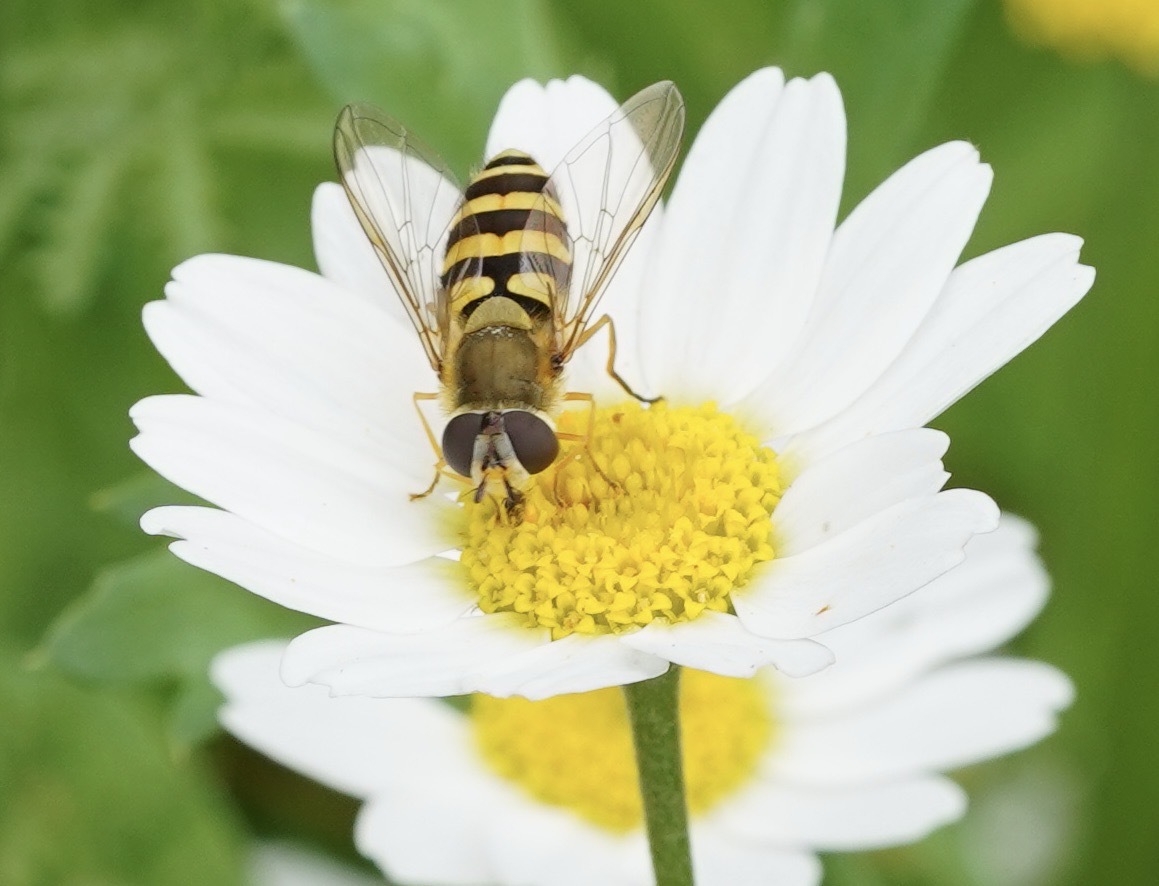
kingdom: Animalia
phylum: Arthropoda
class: Insecta
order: Diptera
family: Syrphidae
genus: Syrphus
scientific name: Syrphus ribesii
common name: Common flower fly
